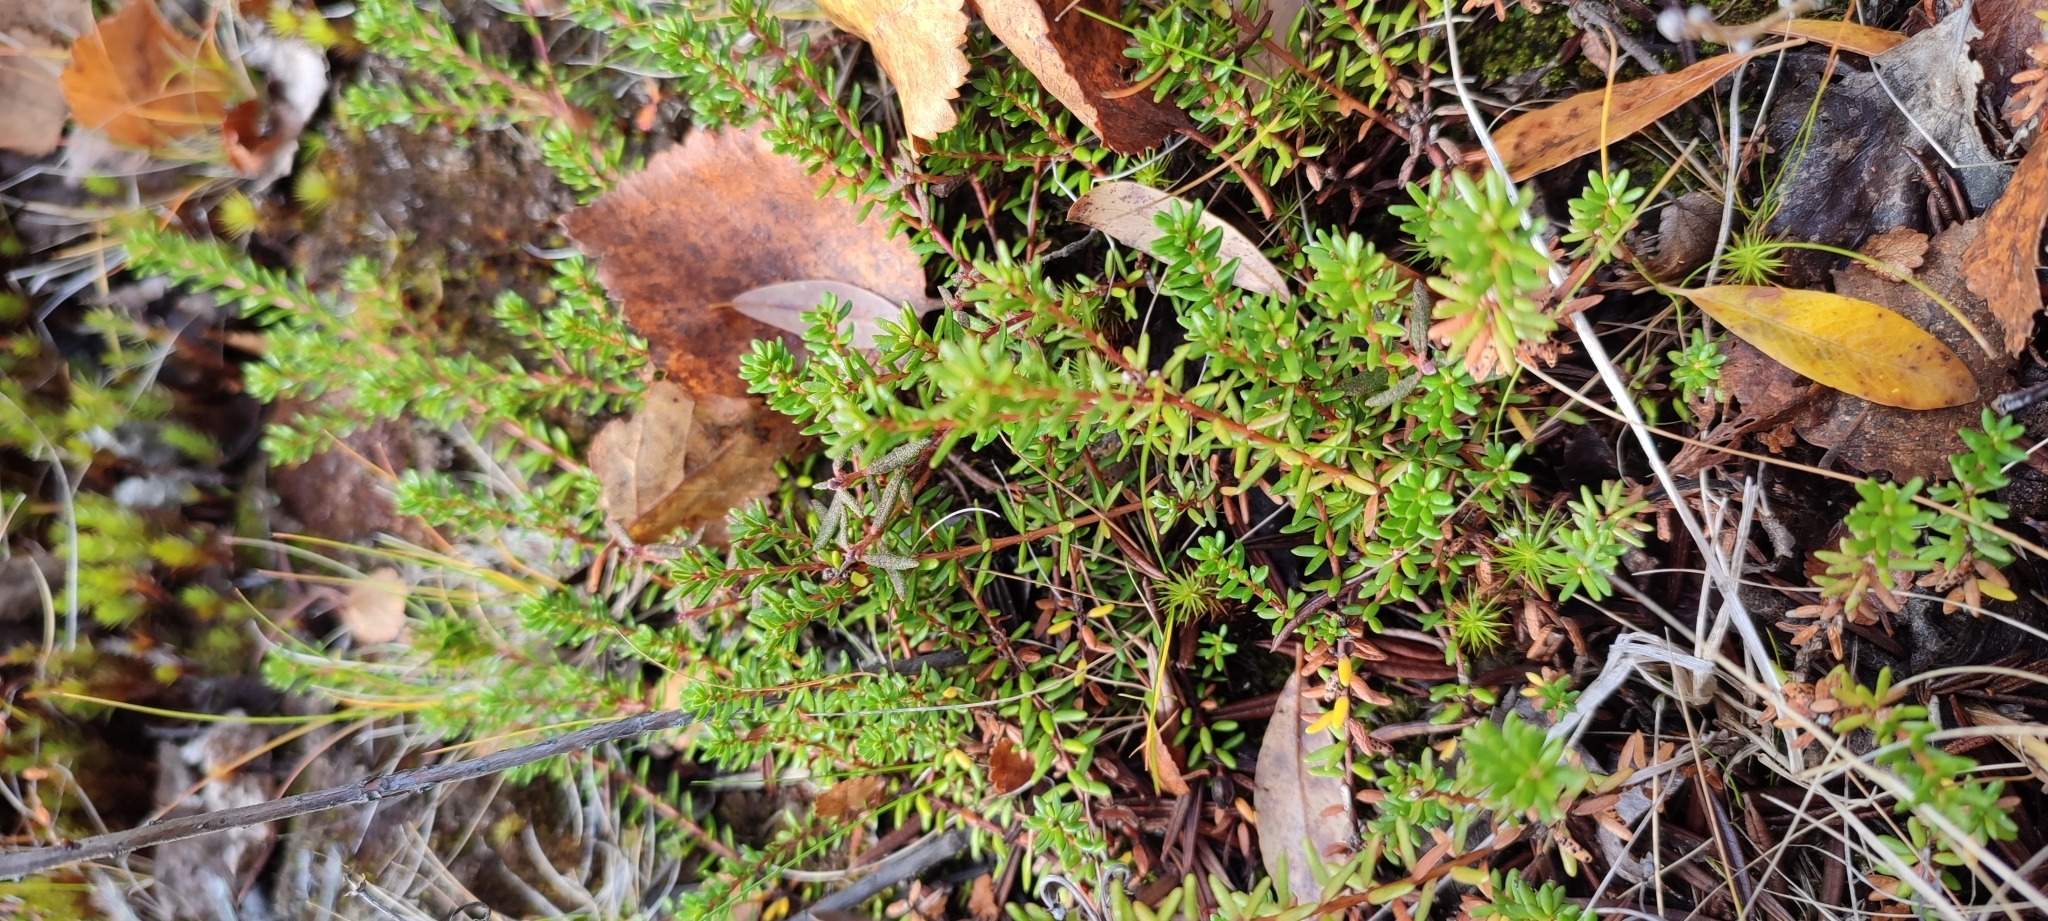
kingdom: Plantae
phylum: Tracheophyta
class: Magnoliopsida
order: Ericales
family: Ericaceae
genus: Empetrum
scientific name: Empetrum nigrum
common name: Black crowberry
